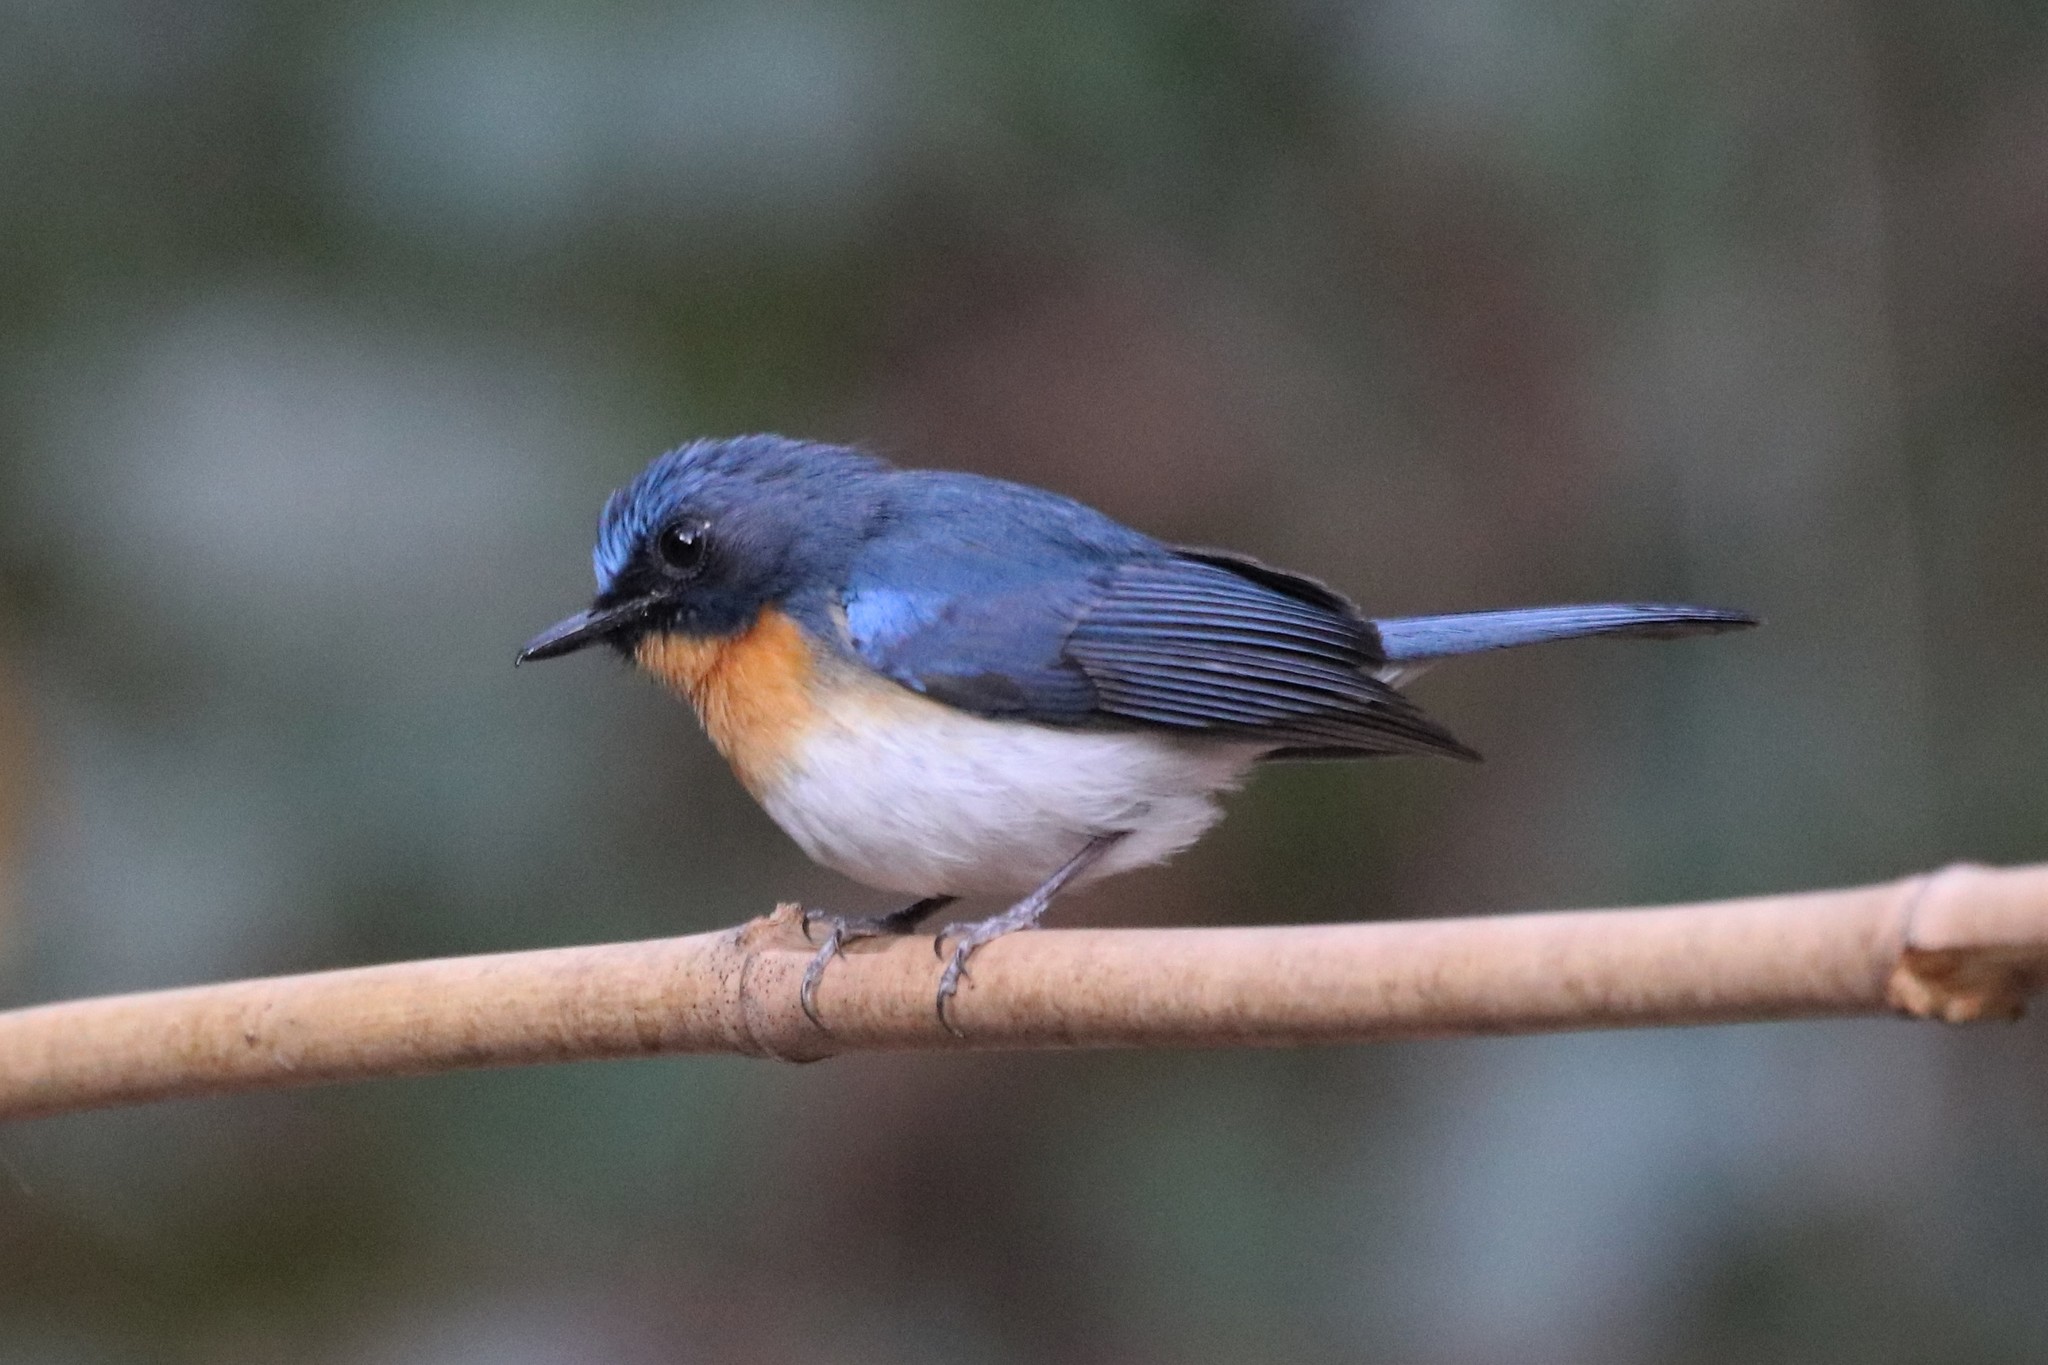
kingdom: Animalia
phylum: Chordata
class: Aves
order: Passeriformes
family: Muscicapidae
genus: Cyornis
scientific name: Cyornis tickelliae
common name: Tickell's blue flycatcher
